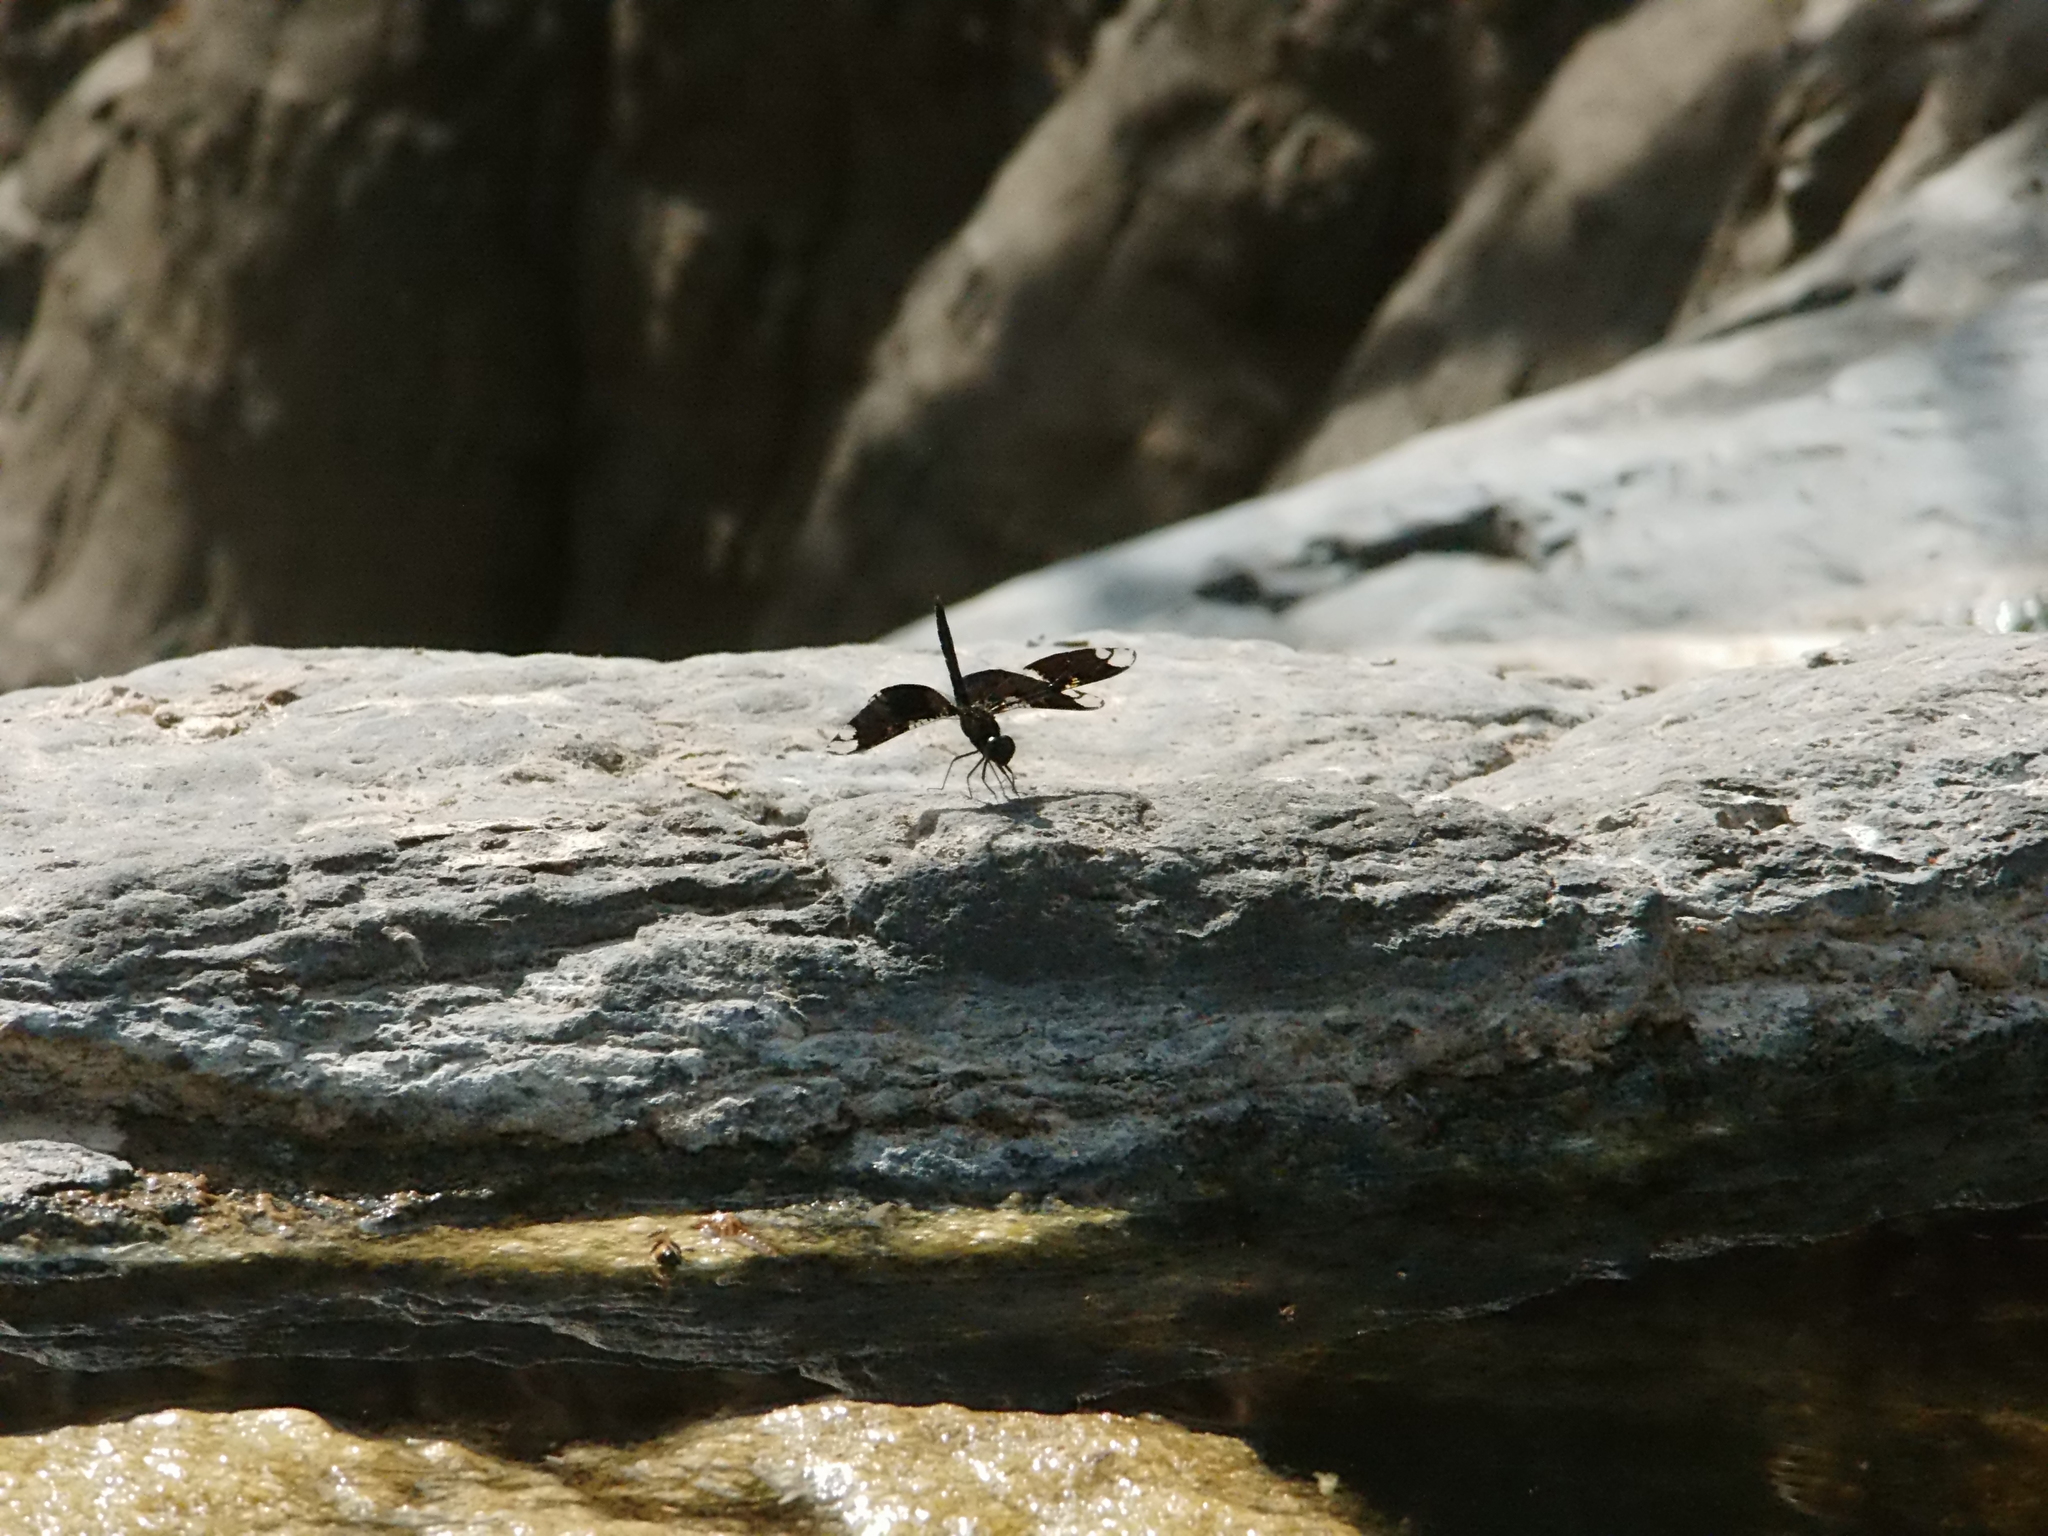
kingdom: Animalia
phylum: Arthropoda
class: Insecta
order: Odonata
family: Libellulidae
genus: Pseudoleon
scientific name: Pseudoleon superbus
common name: Filigree skimmer
